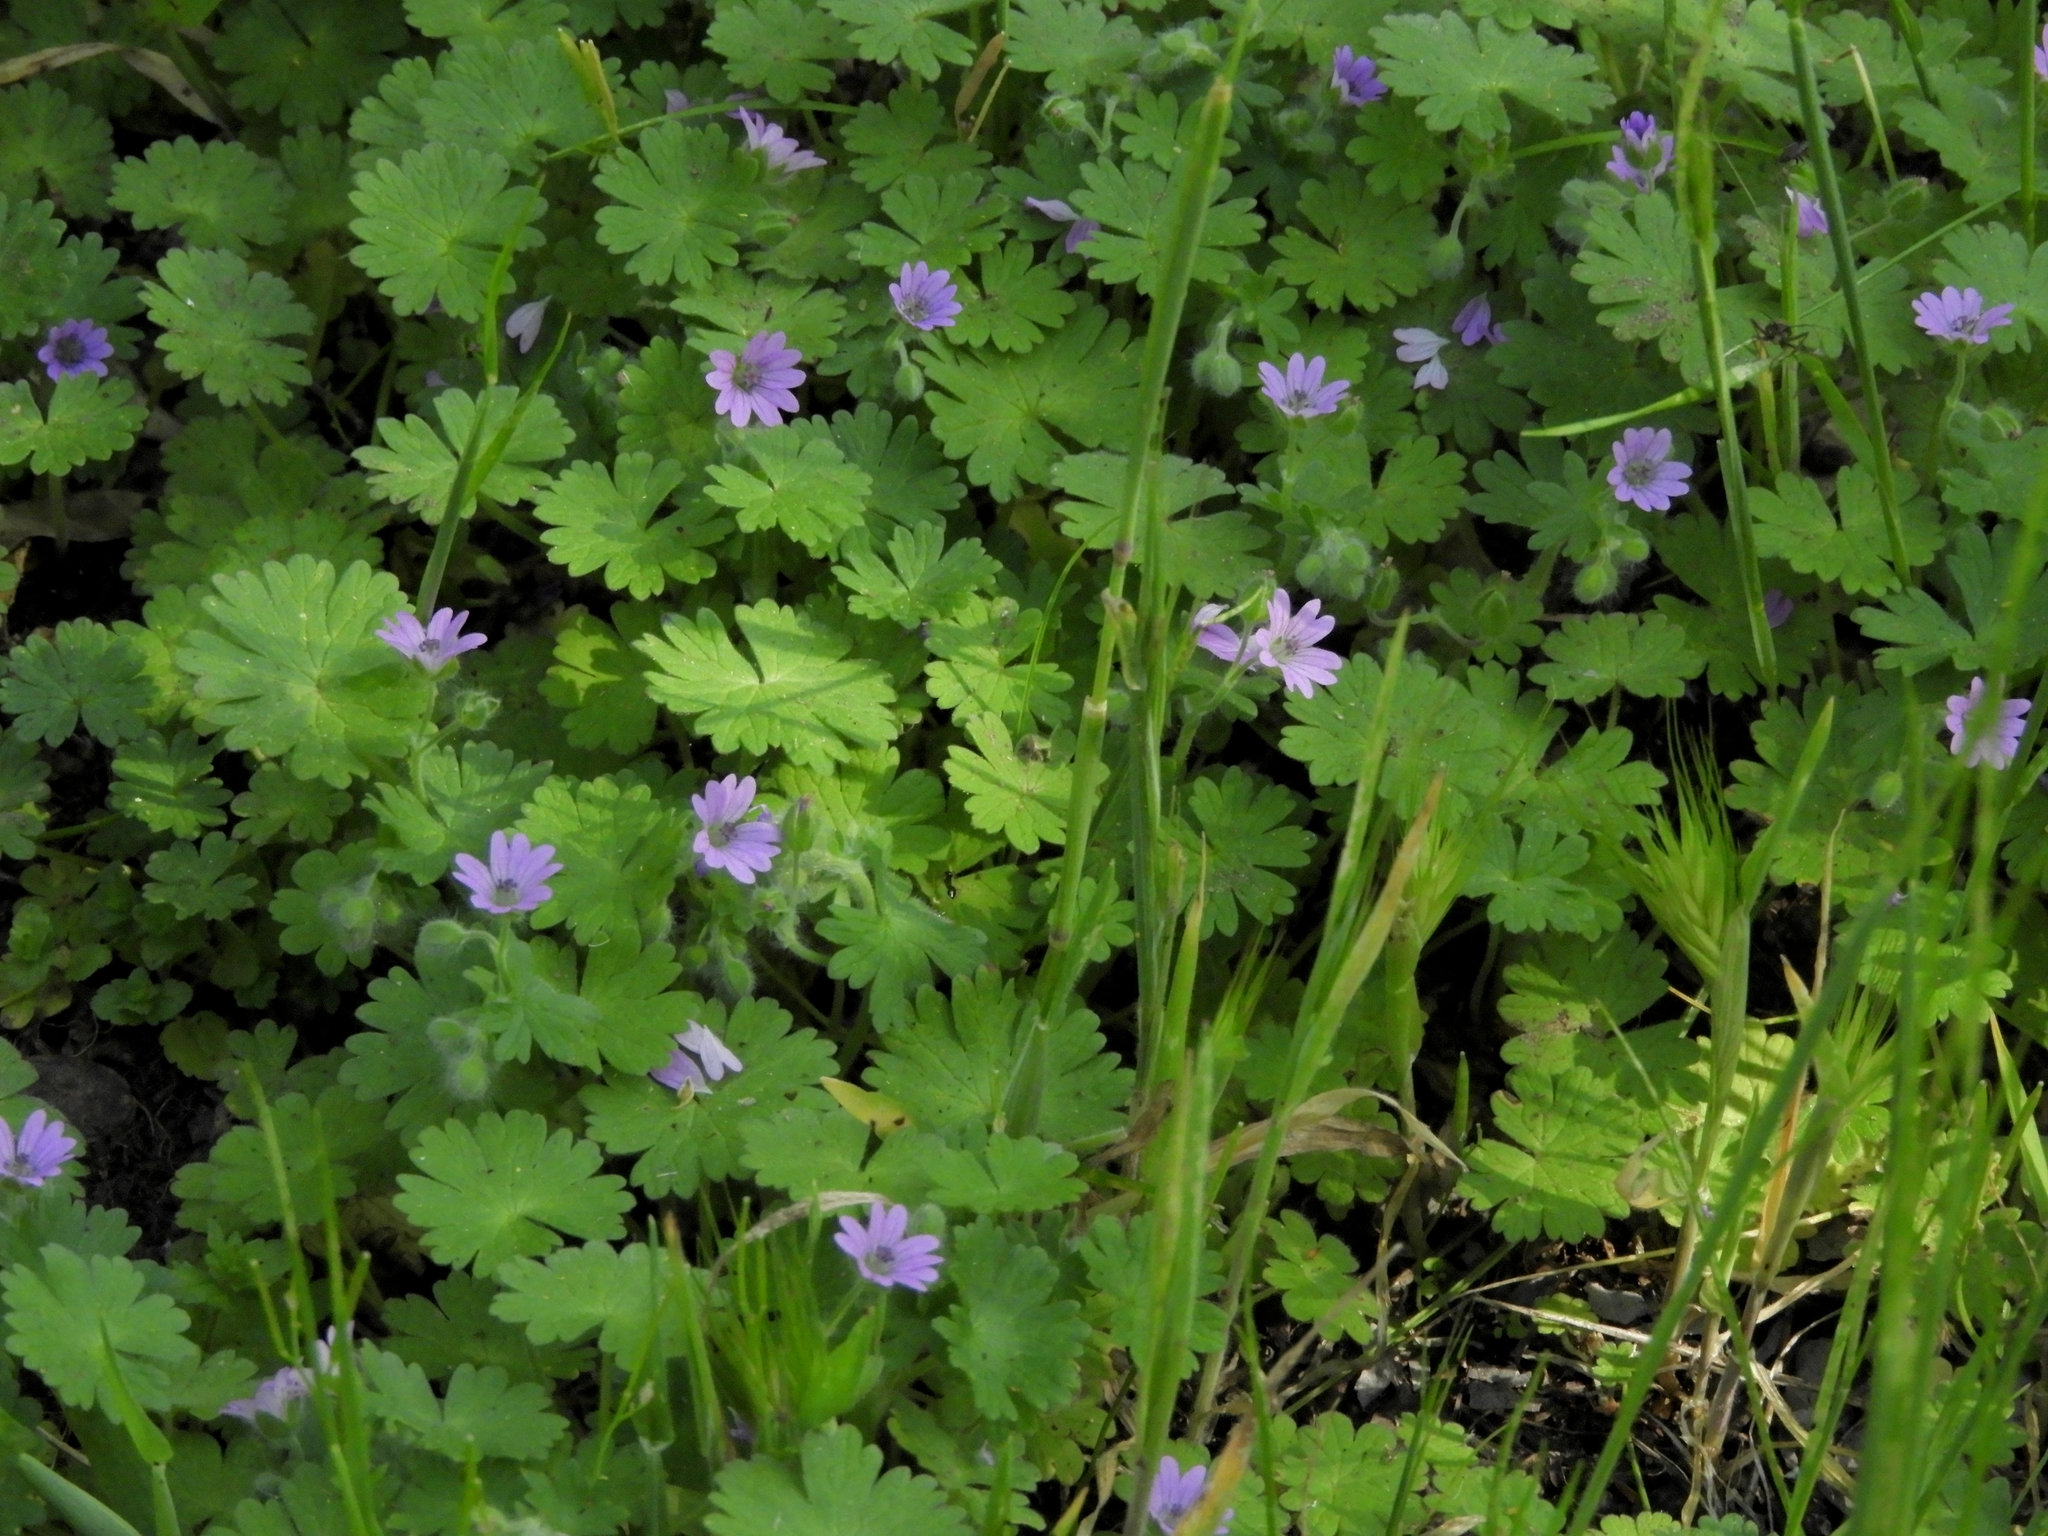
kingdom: Plantae
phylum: Tracheophyta
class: Magnoliopsida
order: Geraniales
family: Geraniaceae
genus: Geranium
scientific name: Geranium molle
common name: Dove's-foot crane's-bill
